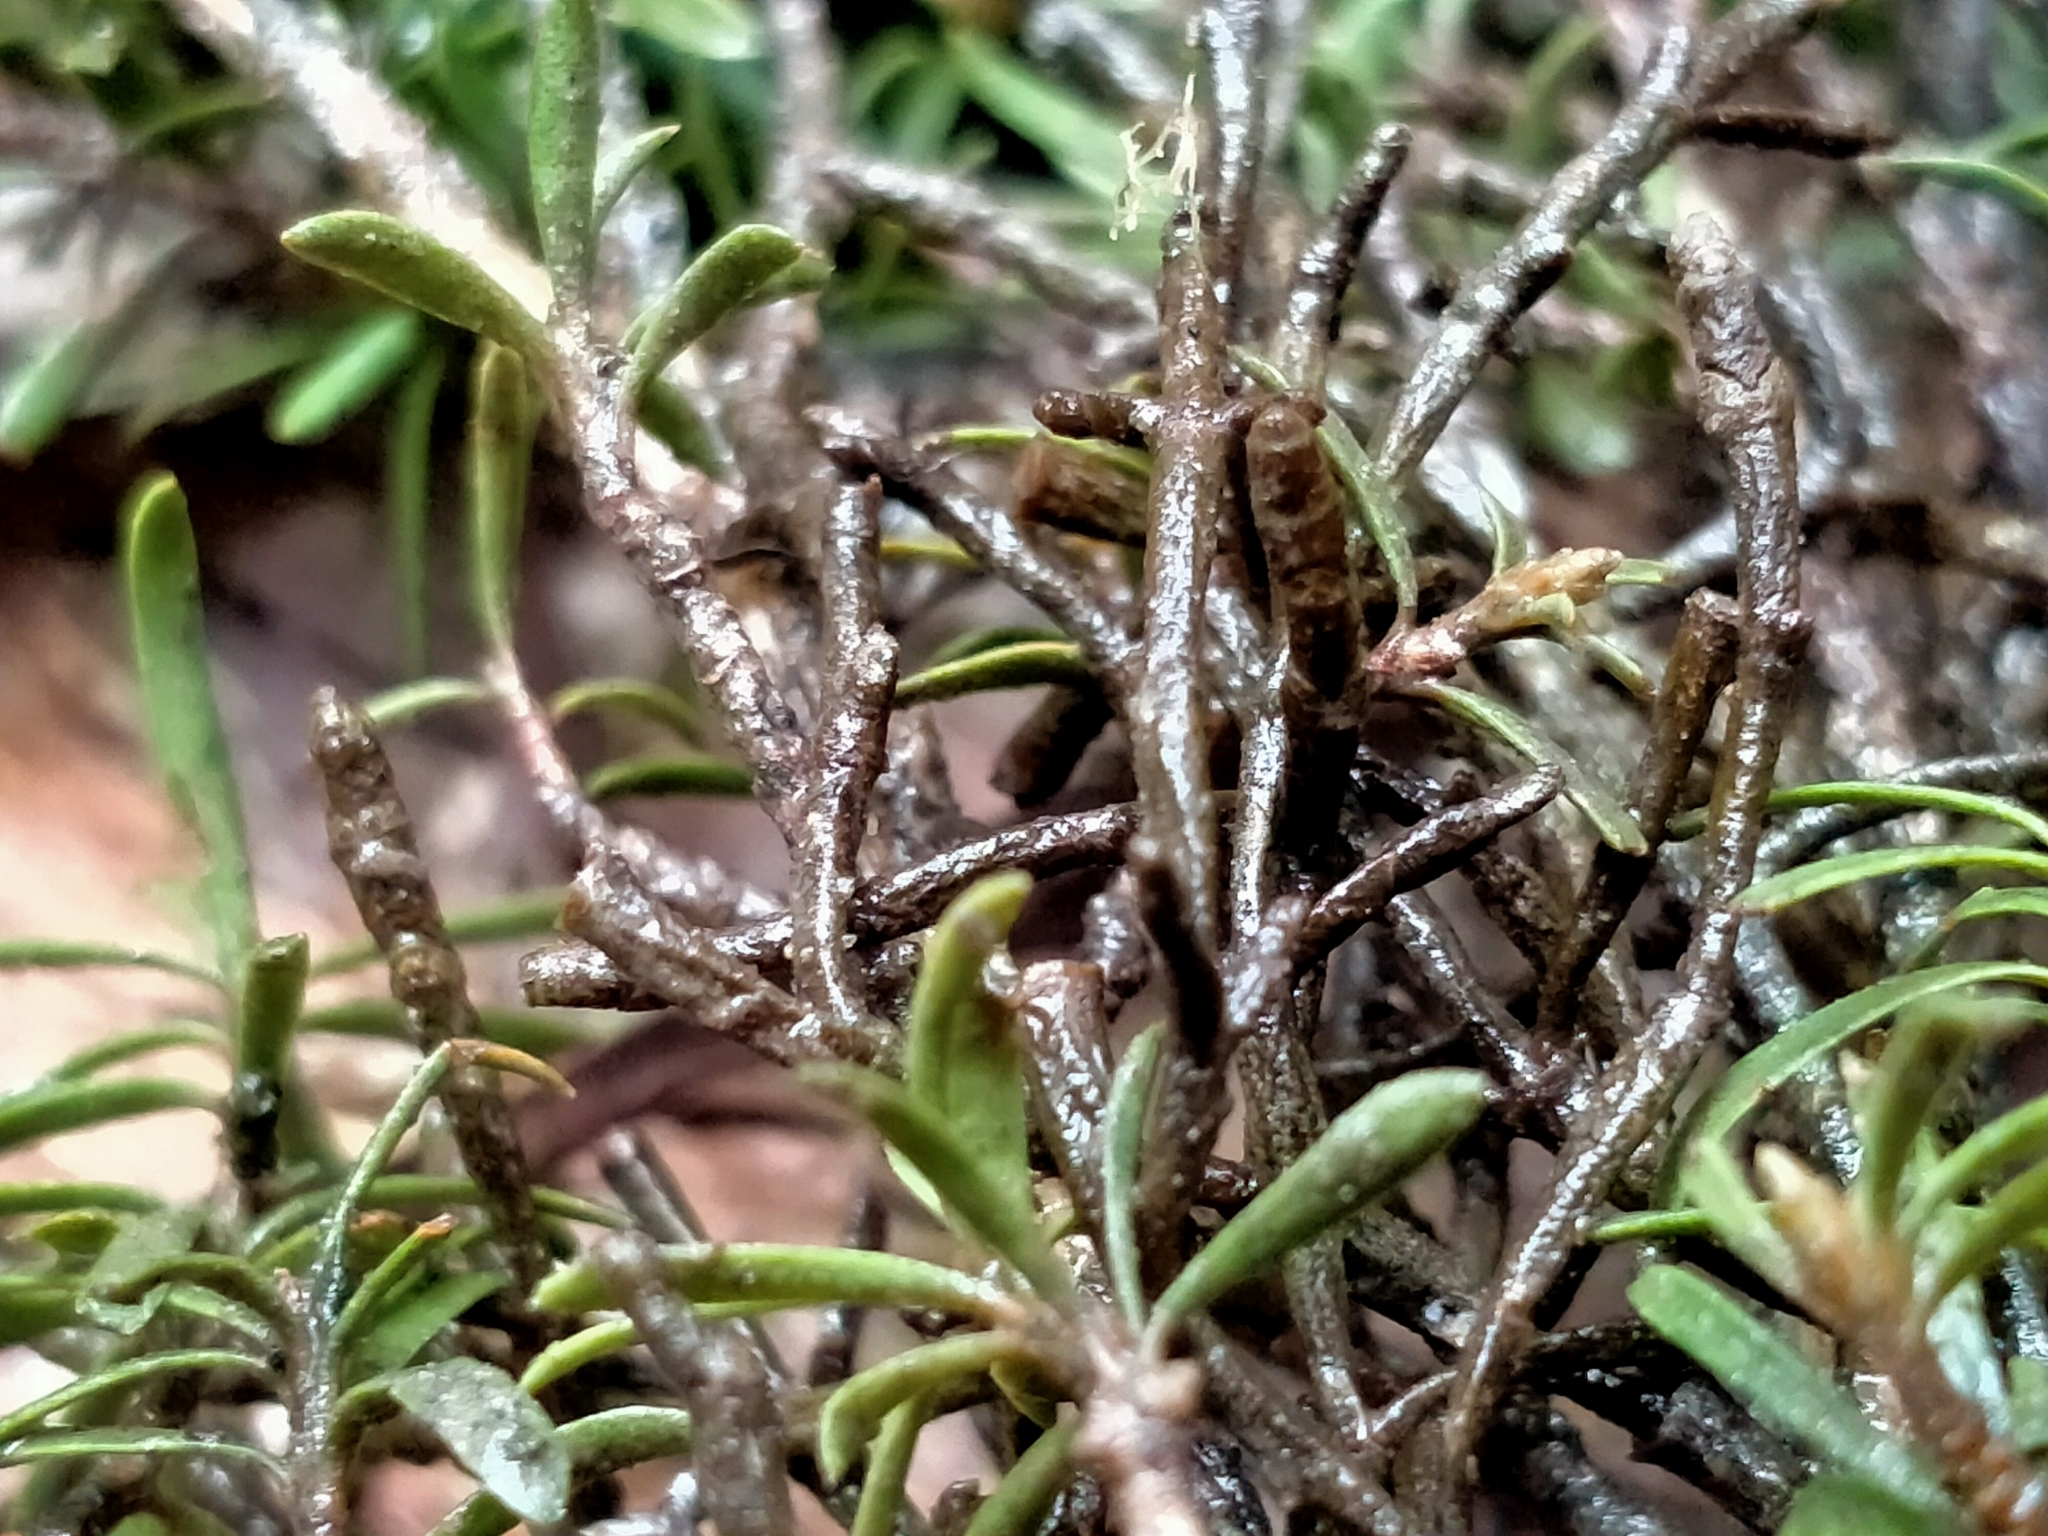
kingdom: Plantae
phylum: Tracheophyta
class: Magnoliopsida
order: Santalales
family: Viscaceae
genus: Korthalsella
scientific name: Korthalsella salicornioides
